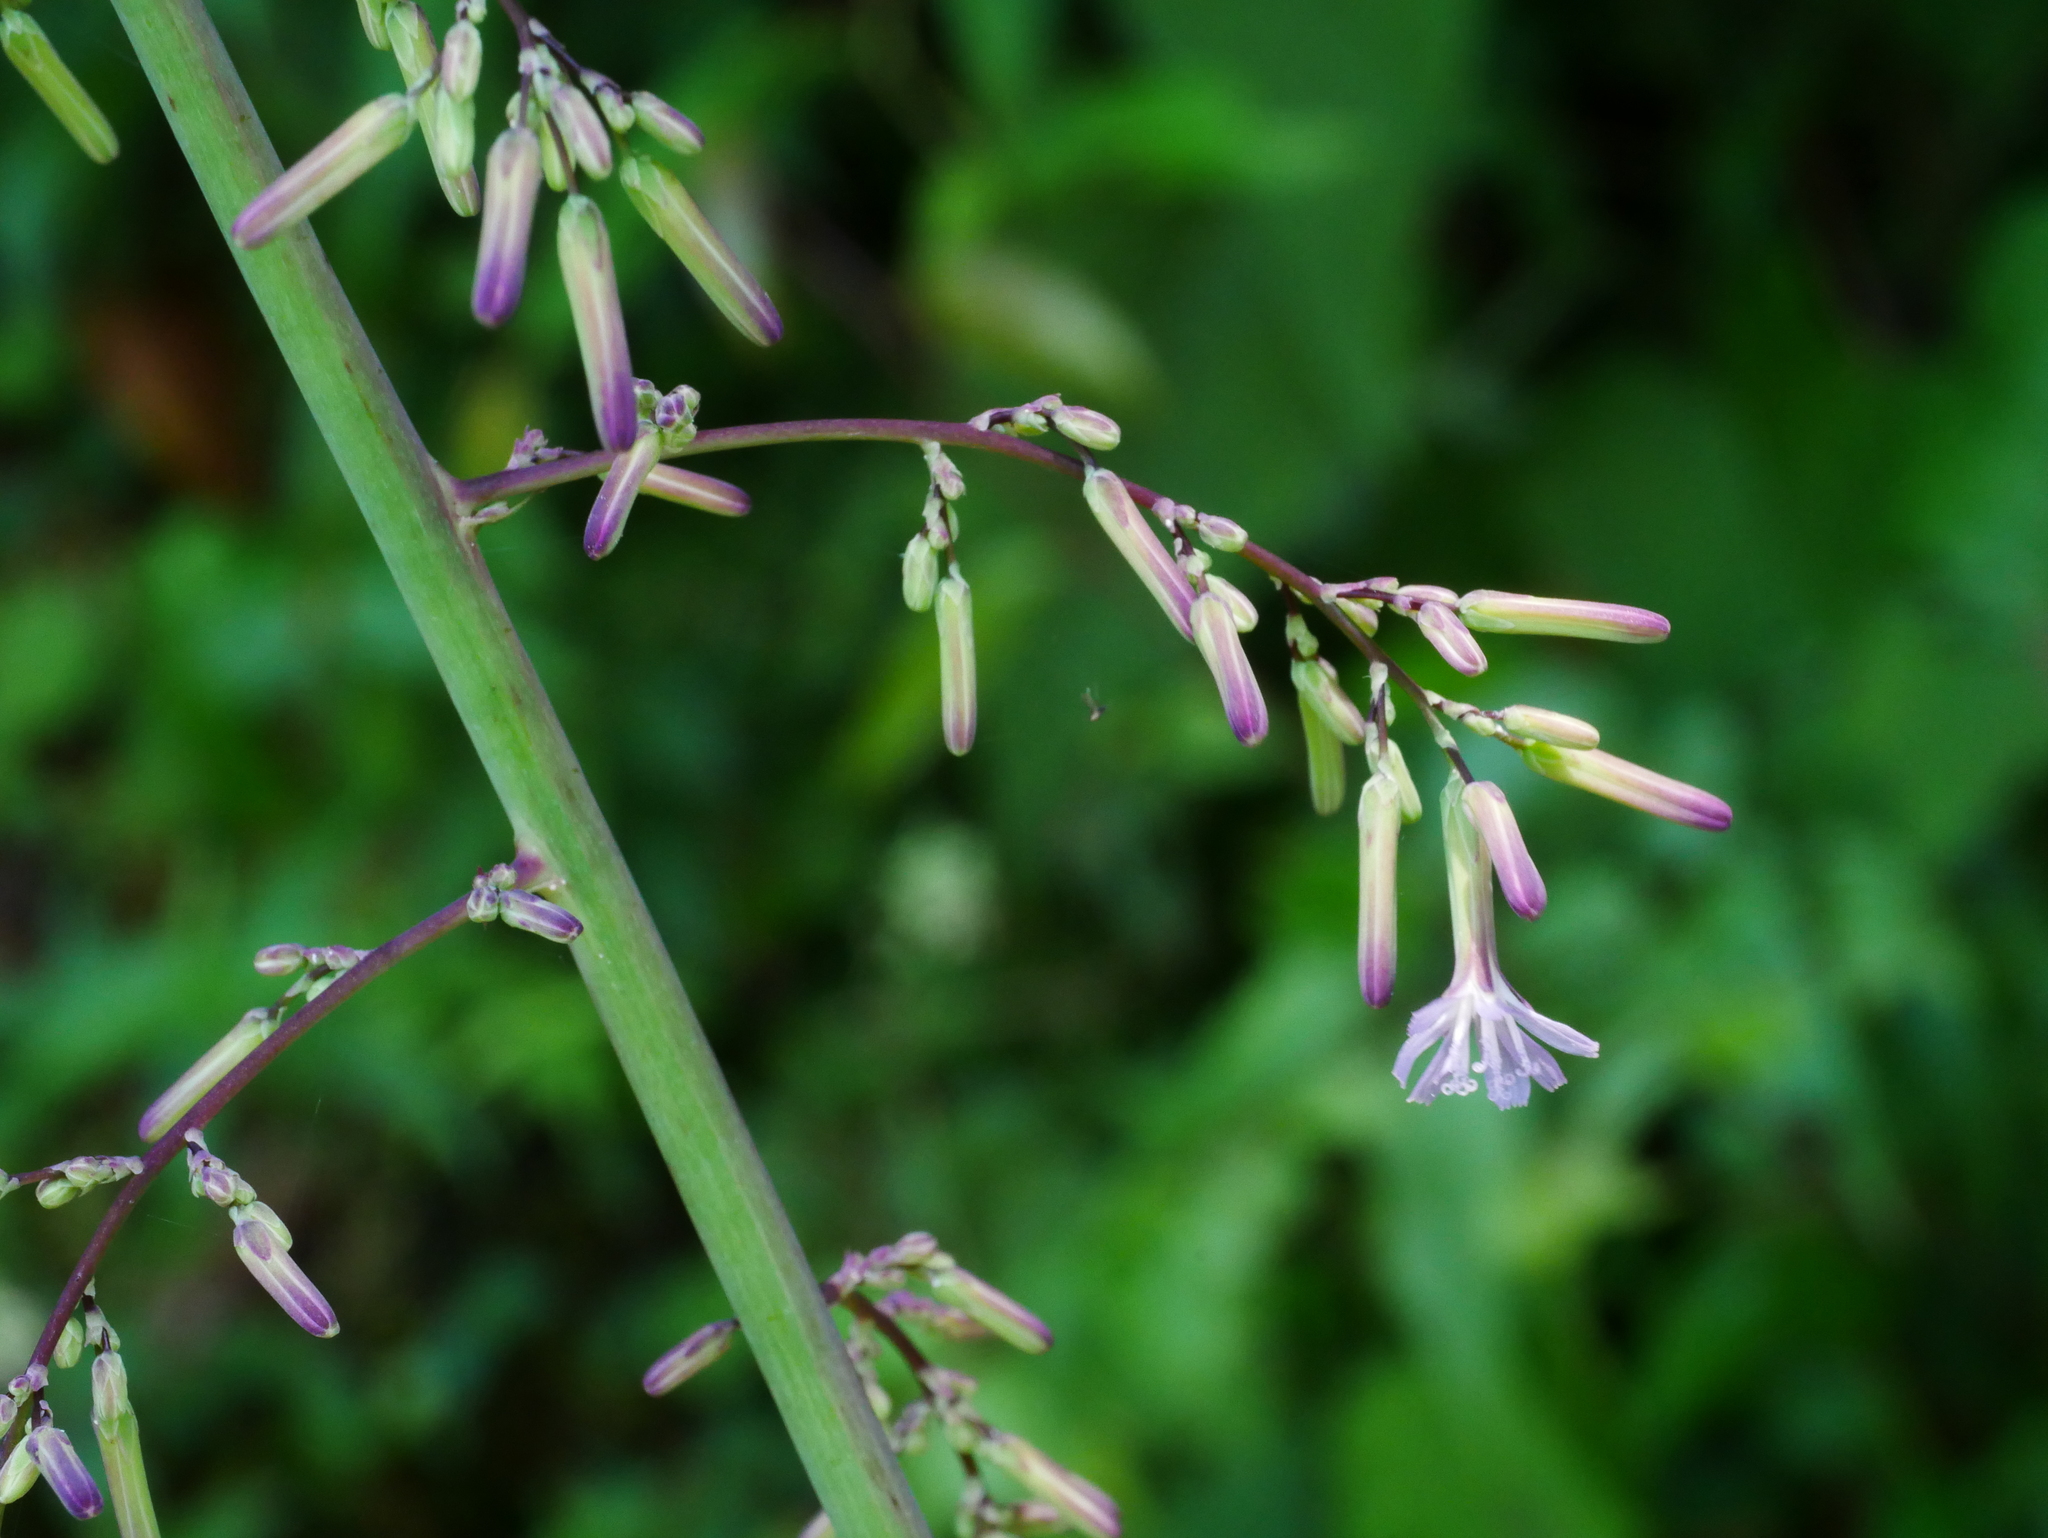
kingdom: Plantae
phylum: Tracheophyta
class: Magnoliopsida
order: Asterales
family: Asteraceae
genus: Paraprenanthes
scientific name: Paraprenanthes sororia
